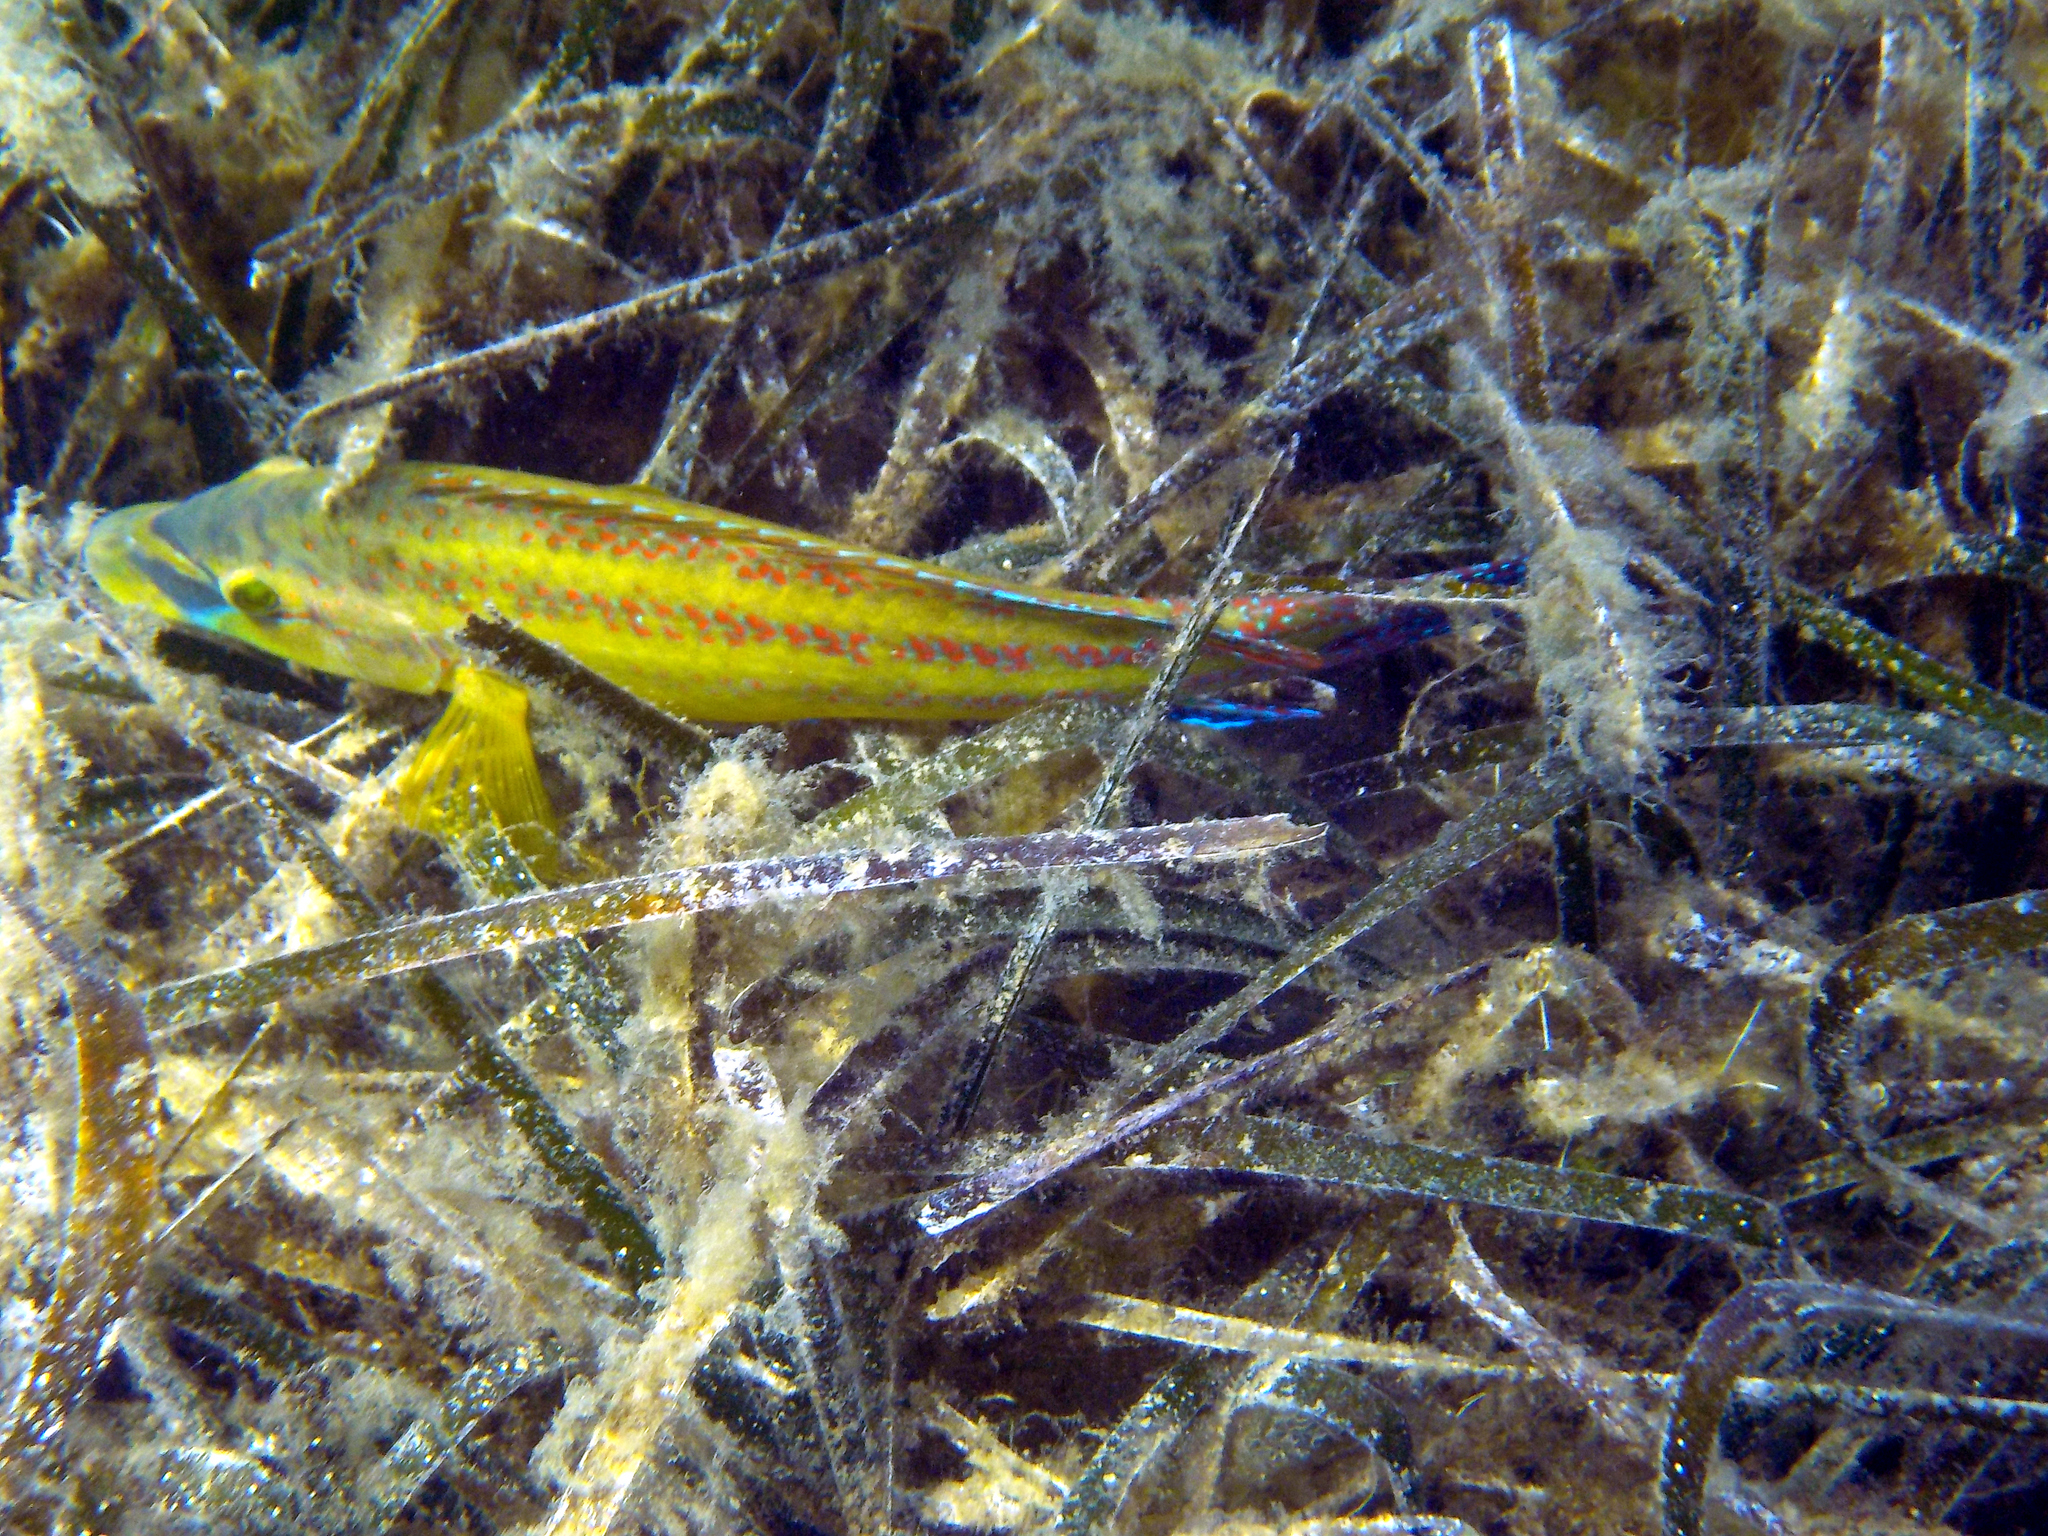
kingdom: Animalia
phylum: Chordata
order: Perciformes
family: Labridae
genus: Symphodus
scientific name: Symphodus tinca
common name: Peacock wrasse
